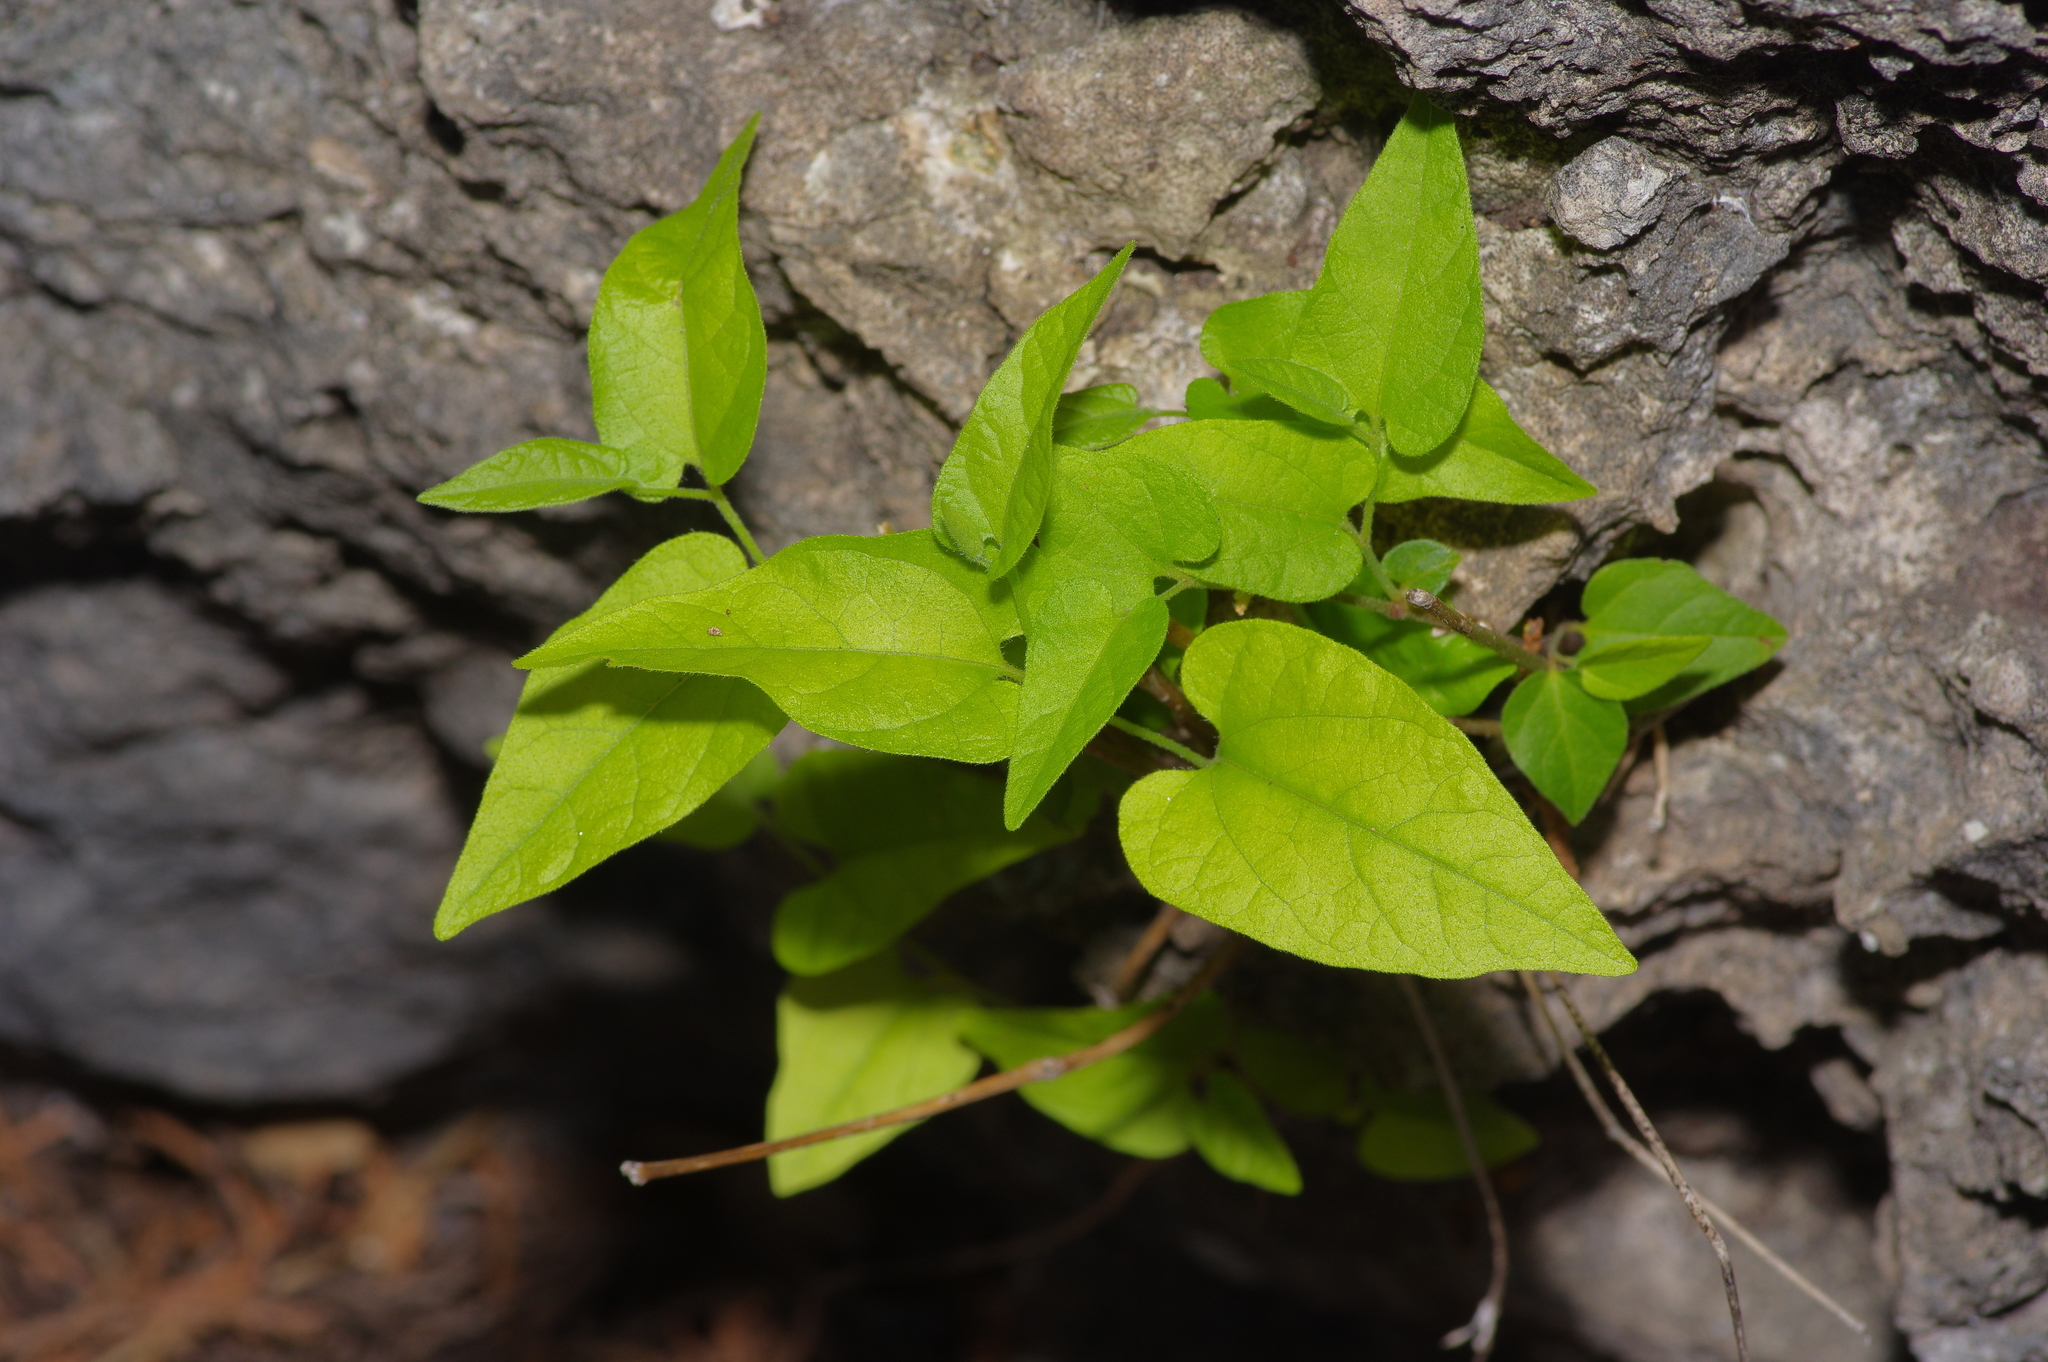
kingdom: Plantae
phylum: Tracheophyta
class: Magnoliopsida
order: Piperales
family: Aristolochiaceae
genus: Endodeca
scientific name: Endodeca serpentaria
